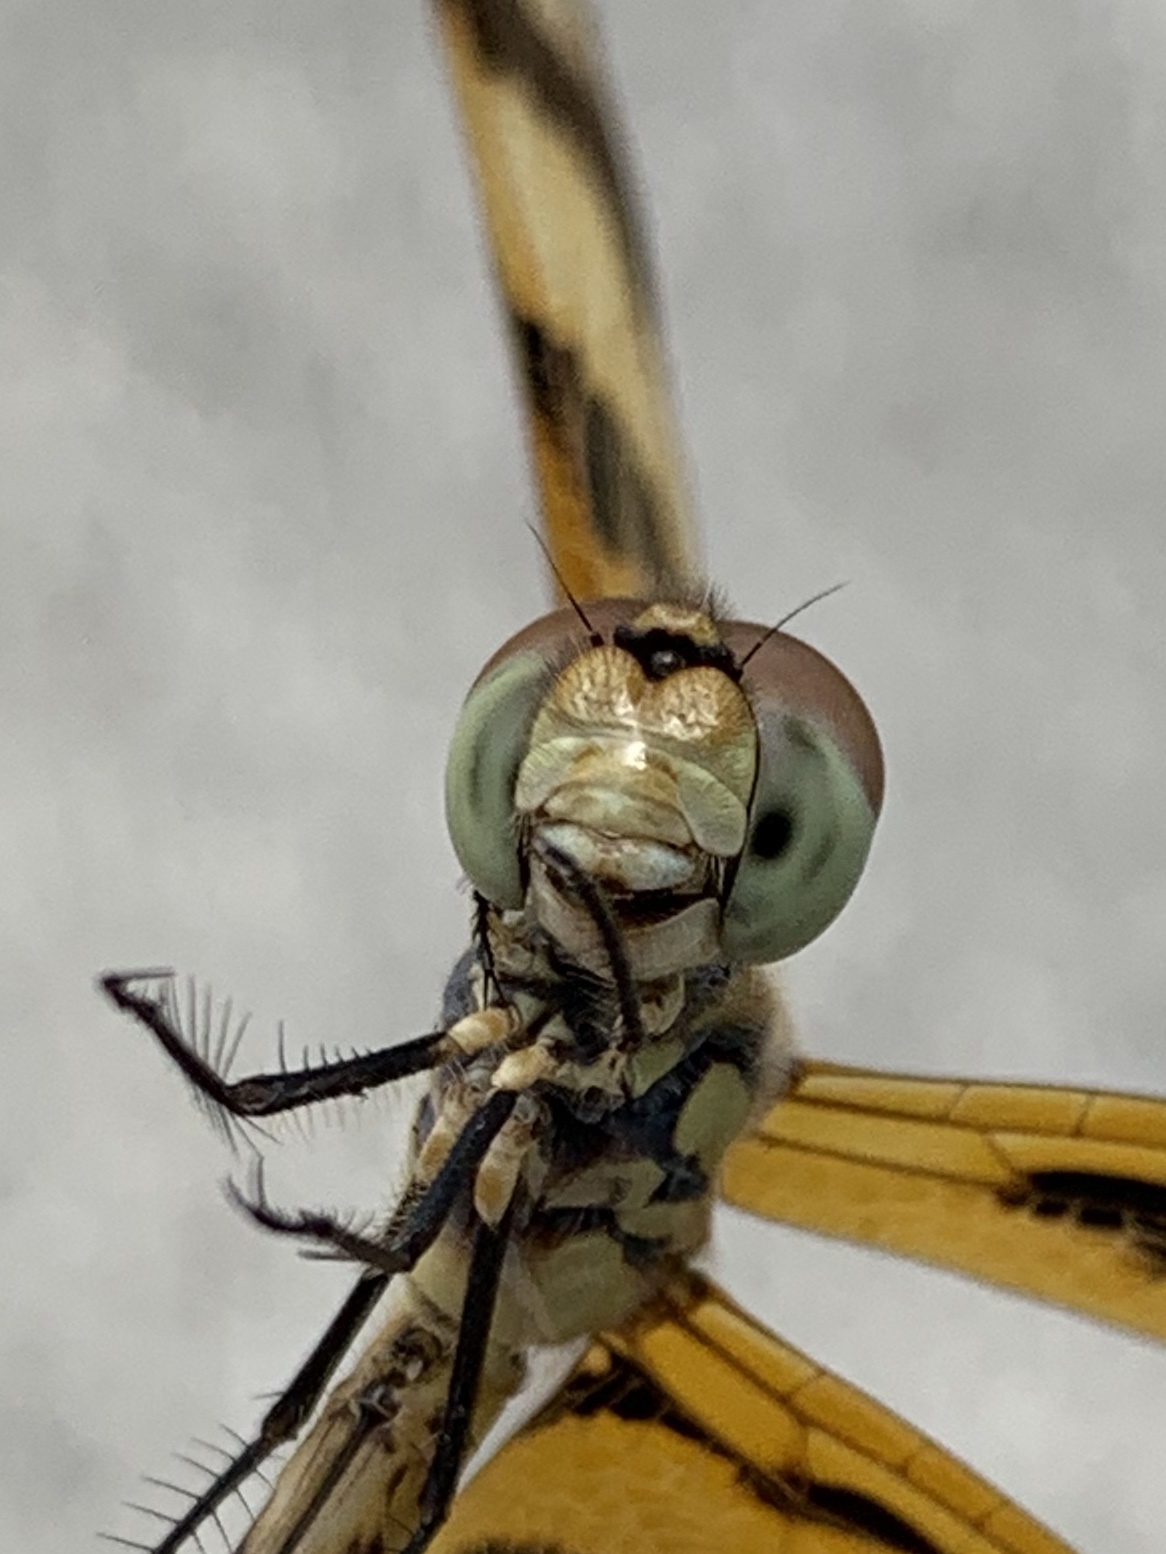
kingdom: Animalia
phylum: Arthropoda
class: Insecta
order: Odonata
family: Libellulidae
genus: Celithemis
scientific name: Celithemis eponina
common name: Halloween pennant
